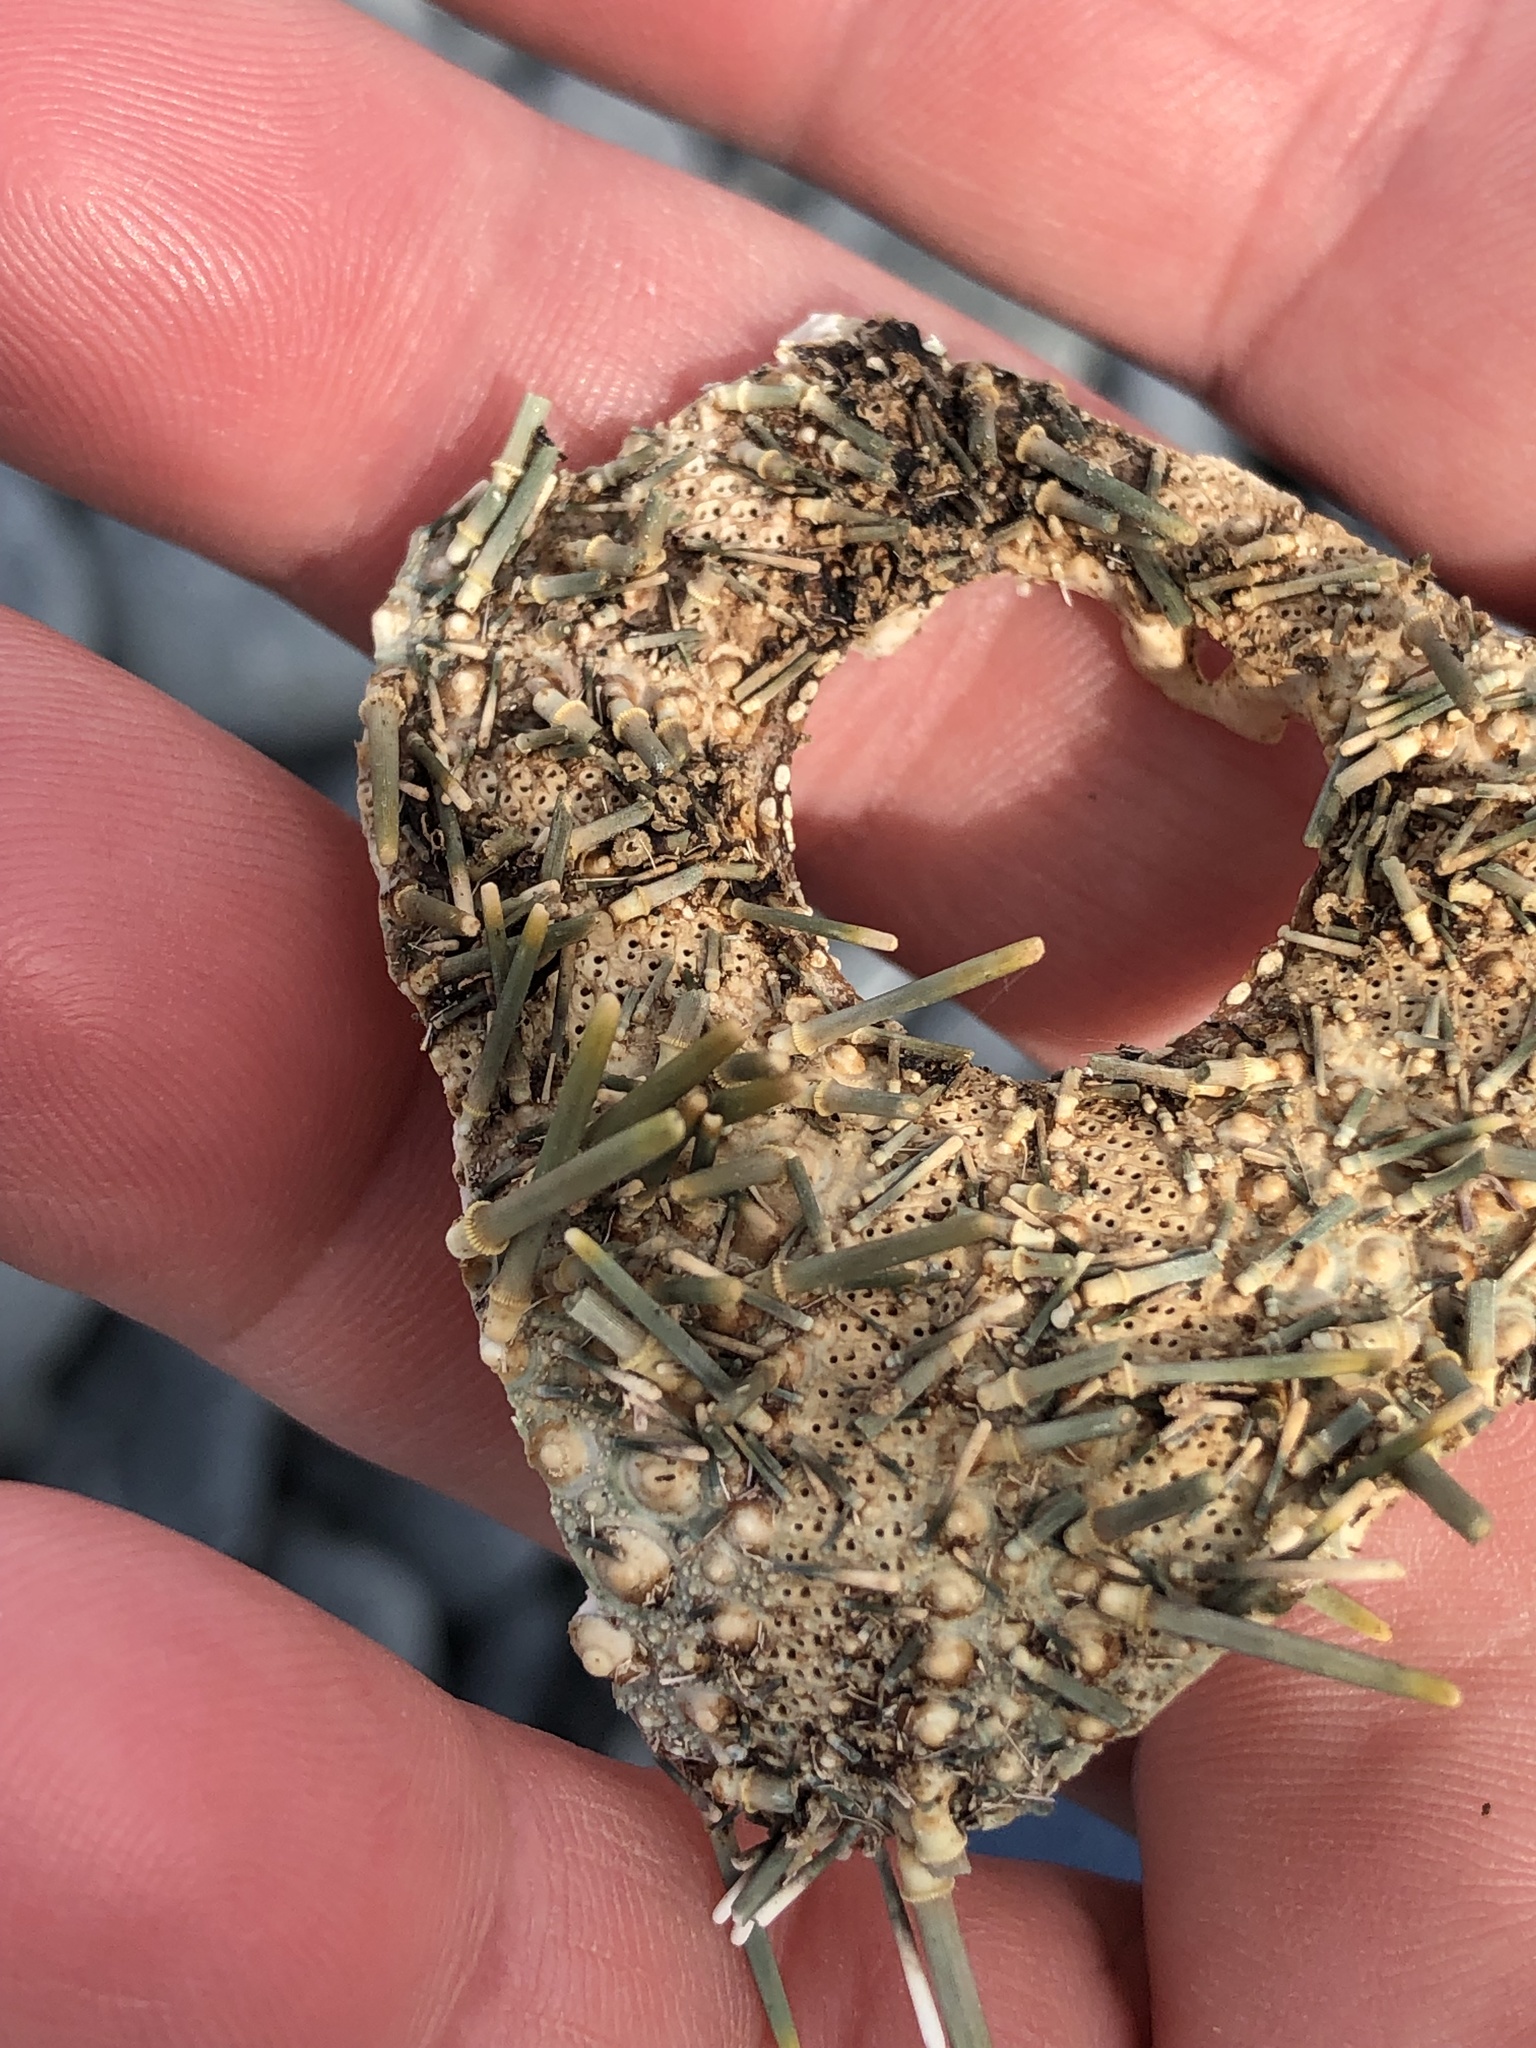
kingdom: Animalia
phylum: Echinodermata
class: Echinoidea
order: Camarodonta
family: Echinometridae
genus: Evechinus
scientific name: Evechinus chloroticus
